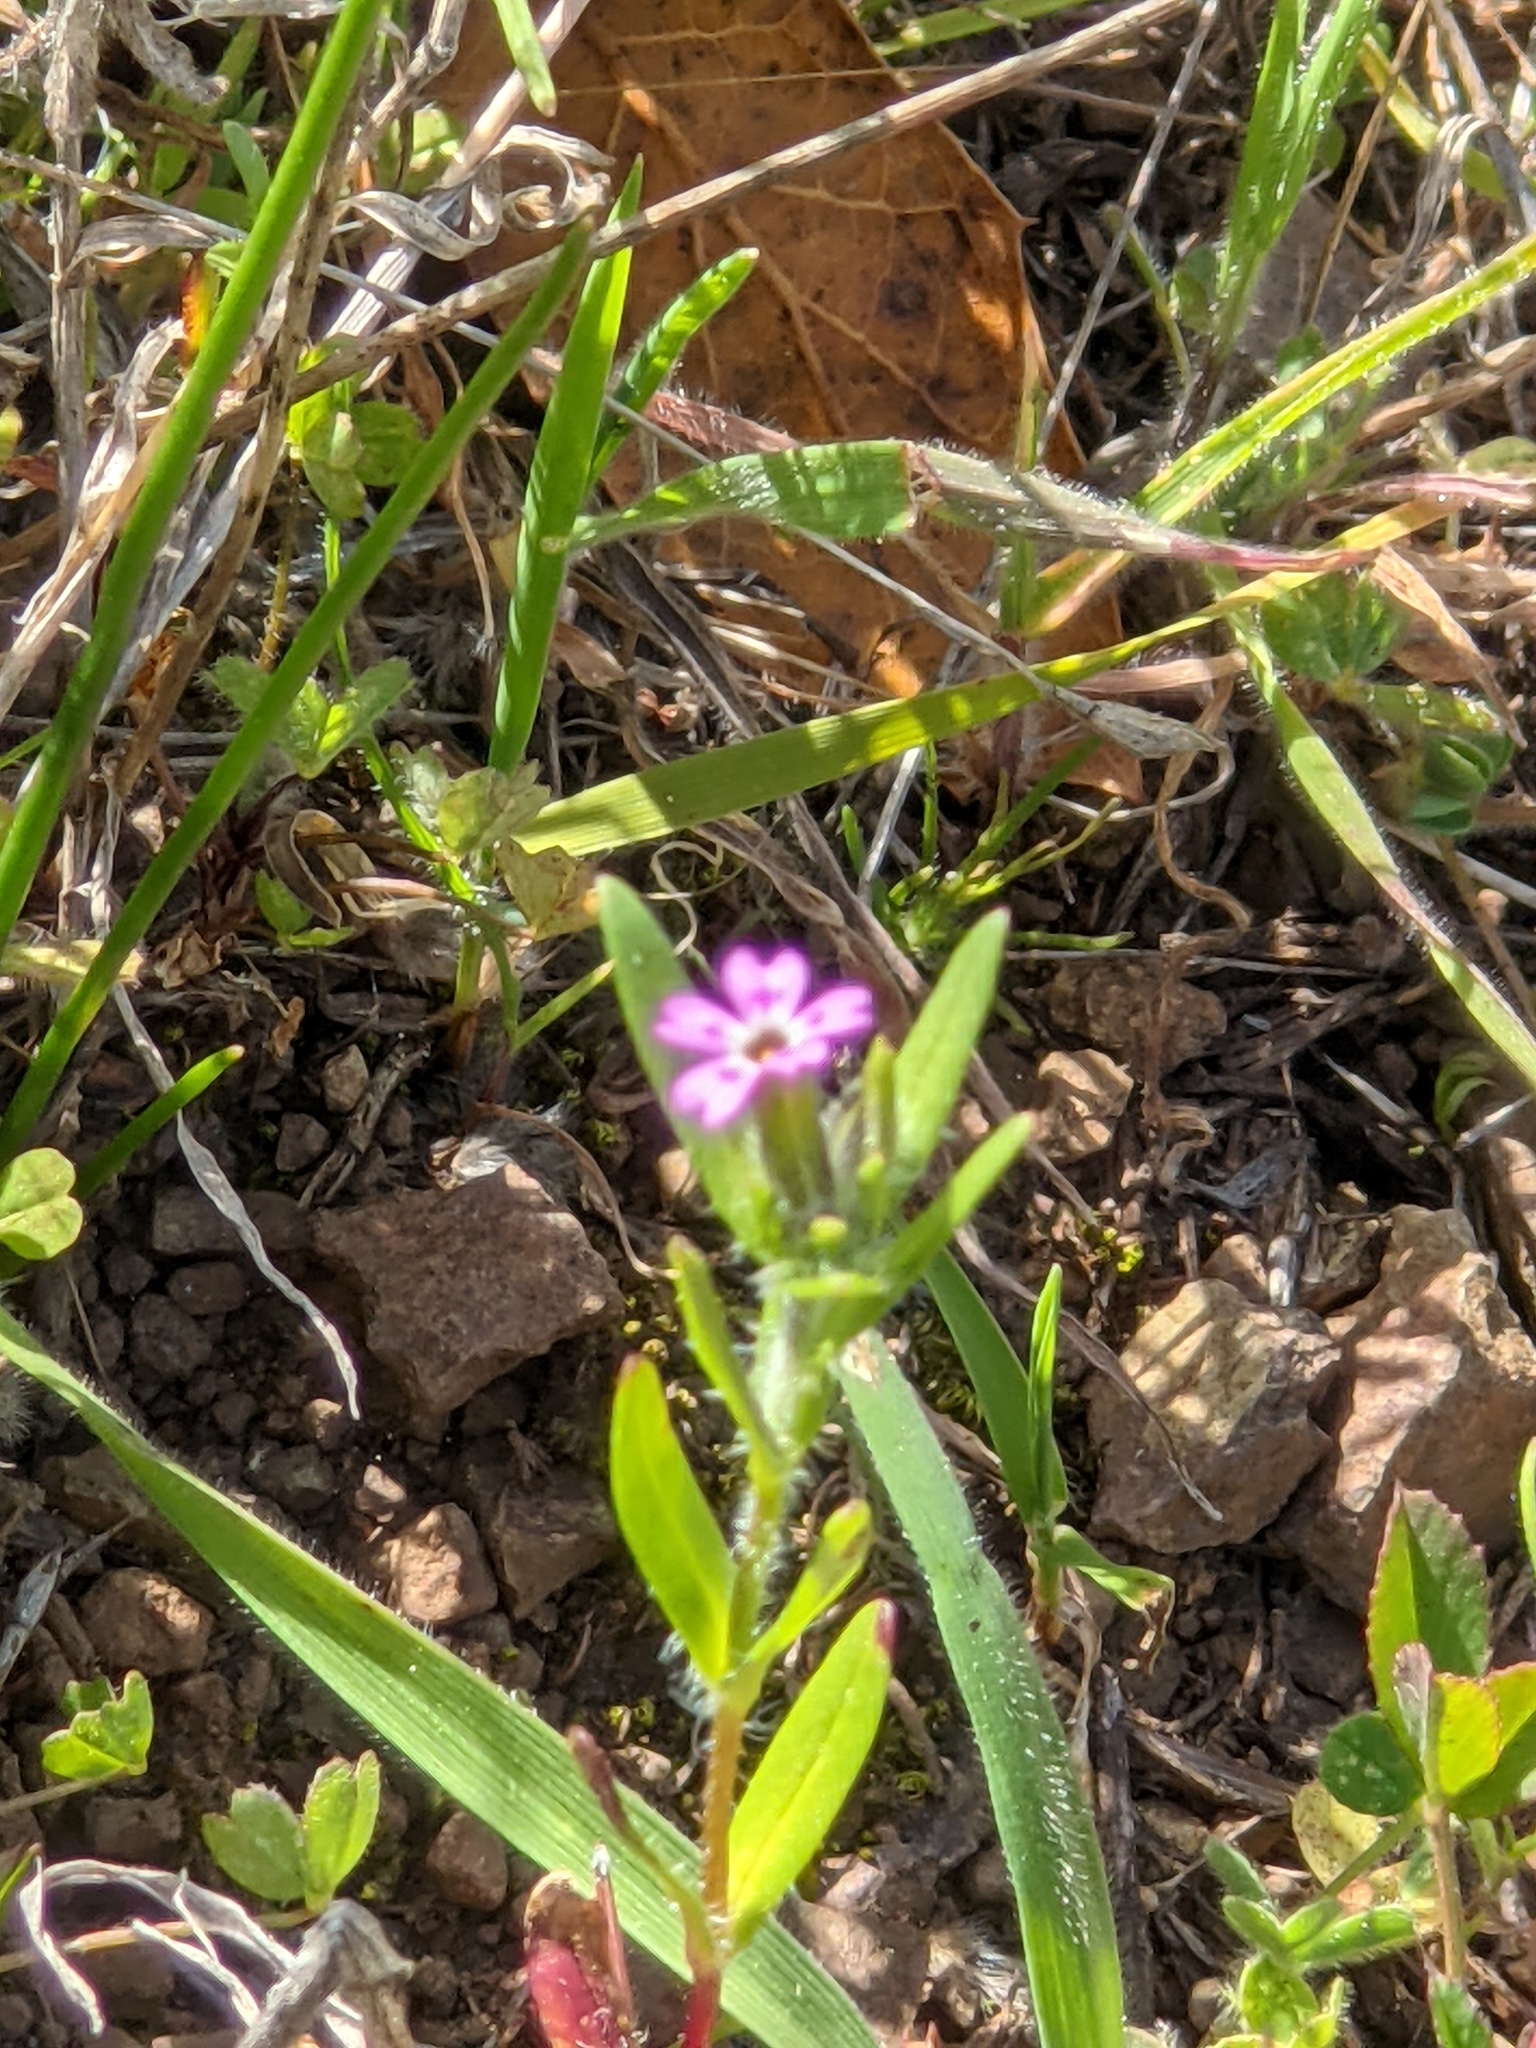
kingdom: Plantae
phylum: Tracheophyta
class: Magnoliopsida
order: Ericales
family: Polemoniaceae
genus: Phlox
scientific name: Phlox gracilis
